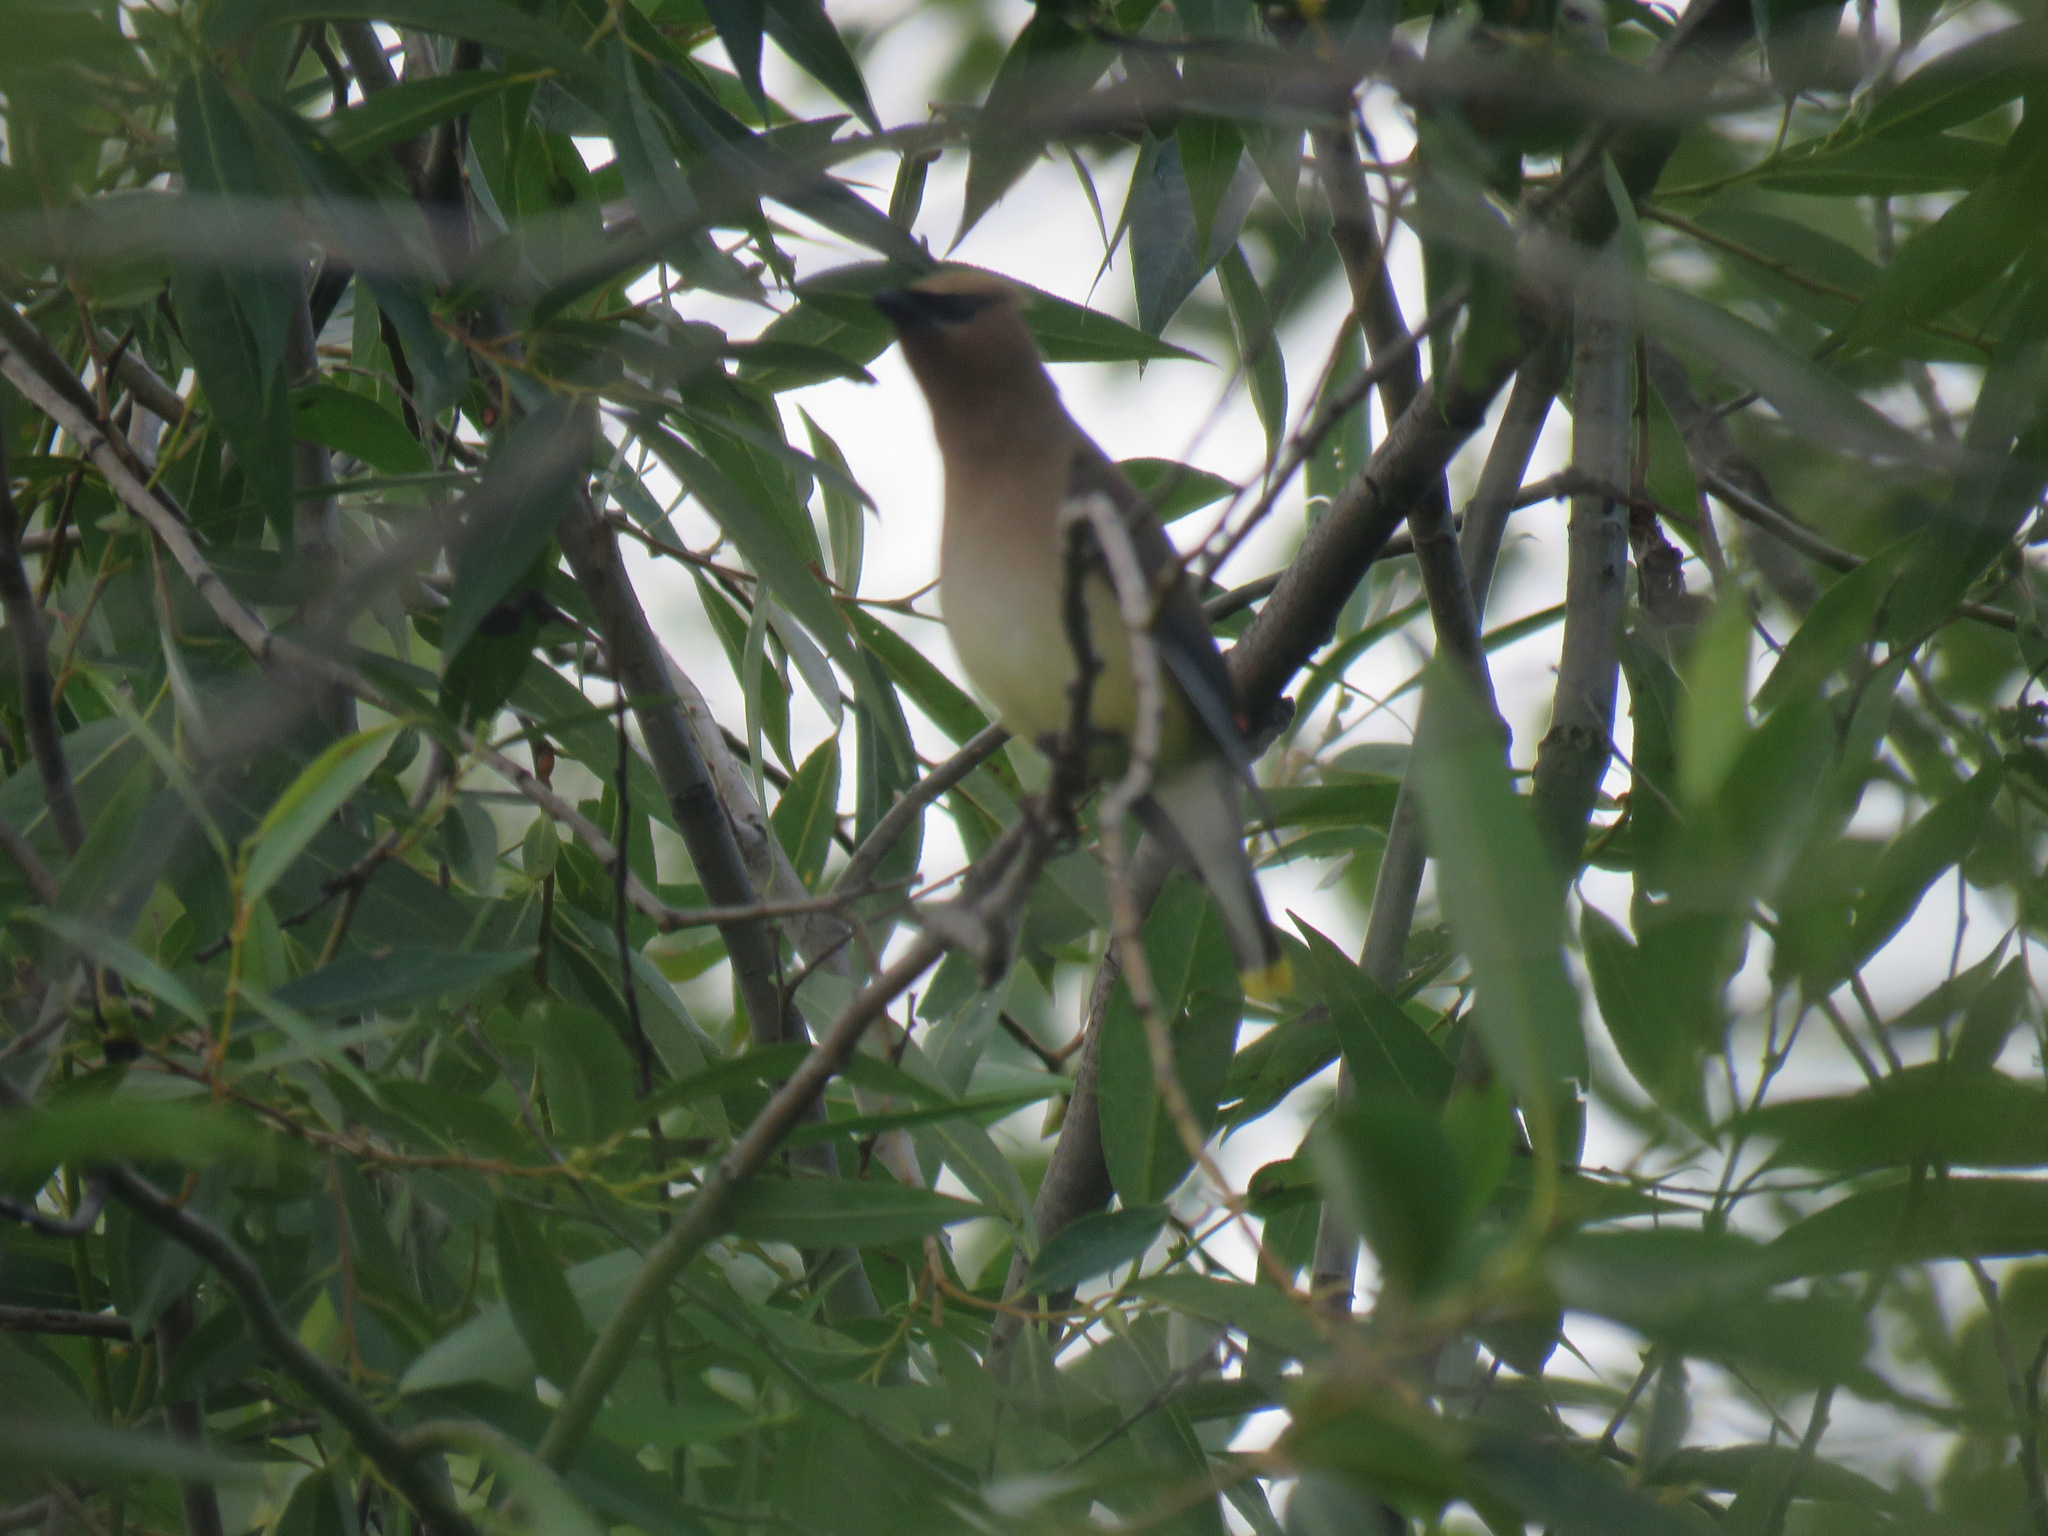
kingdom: Animalia
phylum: Chordata
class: Aves
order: Passeriformes
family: Bombycillidae
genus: Bombycilla
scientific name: Bombycilla cedrorum
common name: Cedar waxwing
